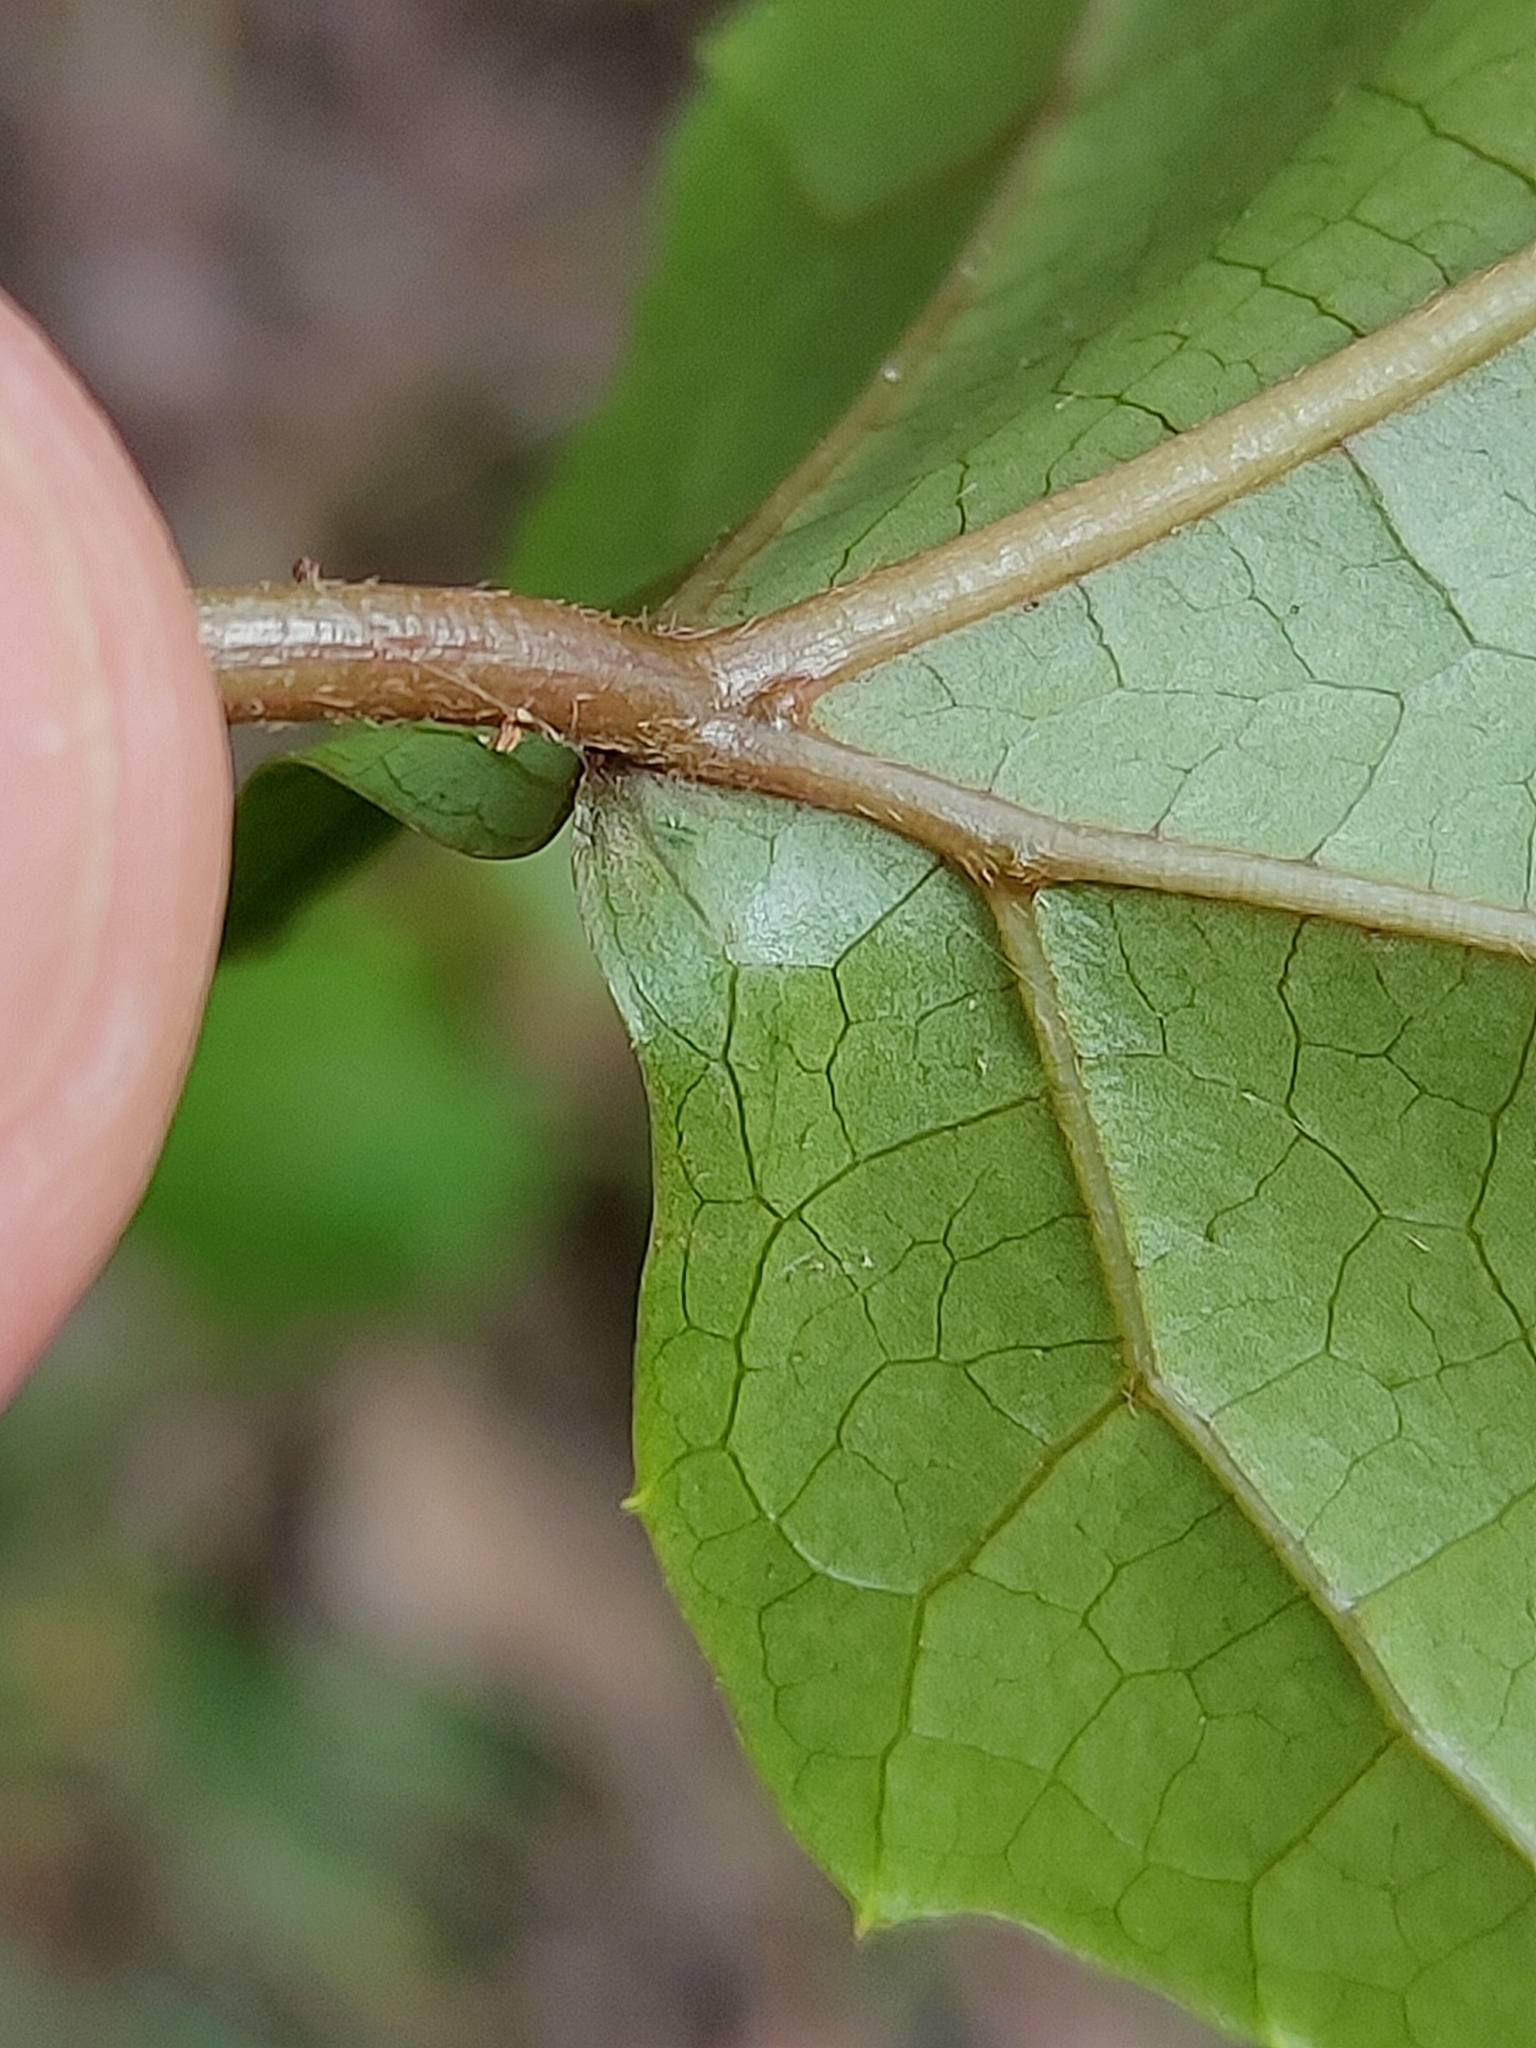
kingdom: Plantae
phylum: Tracheophyta
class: Magnoliopsida
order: Vitales
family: Vitaceae
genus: Cissus
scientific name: Cissus antarctica
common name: Kangaroo vine
